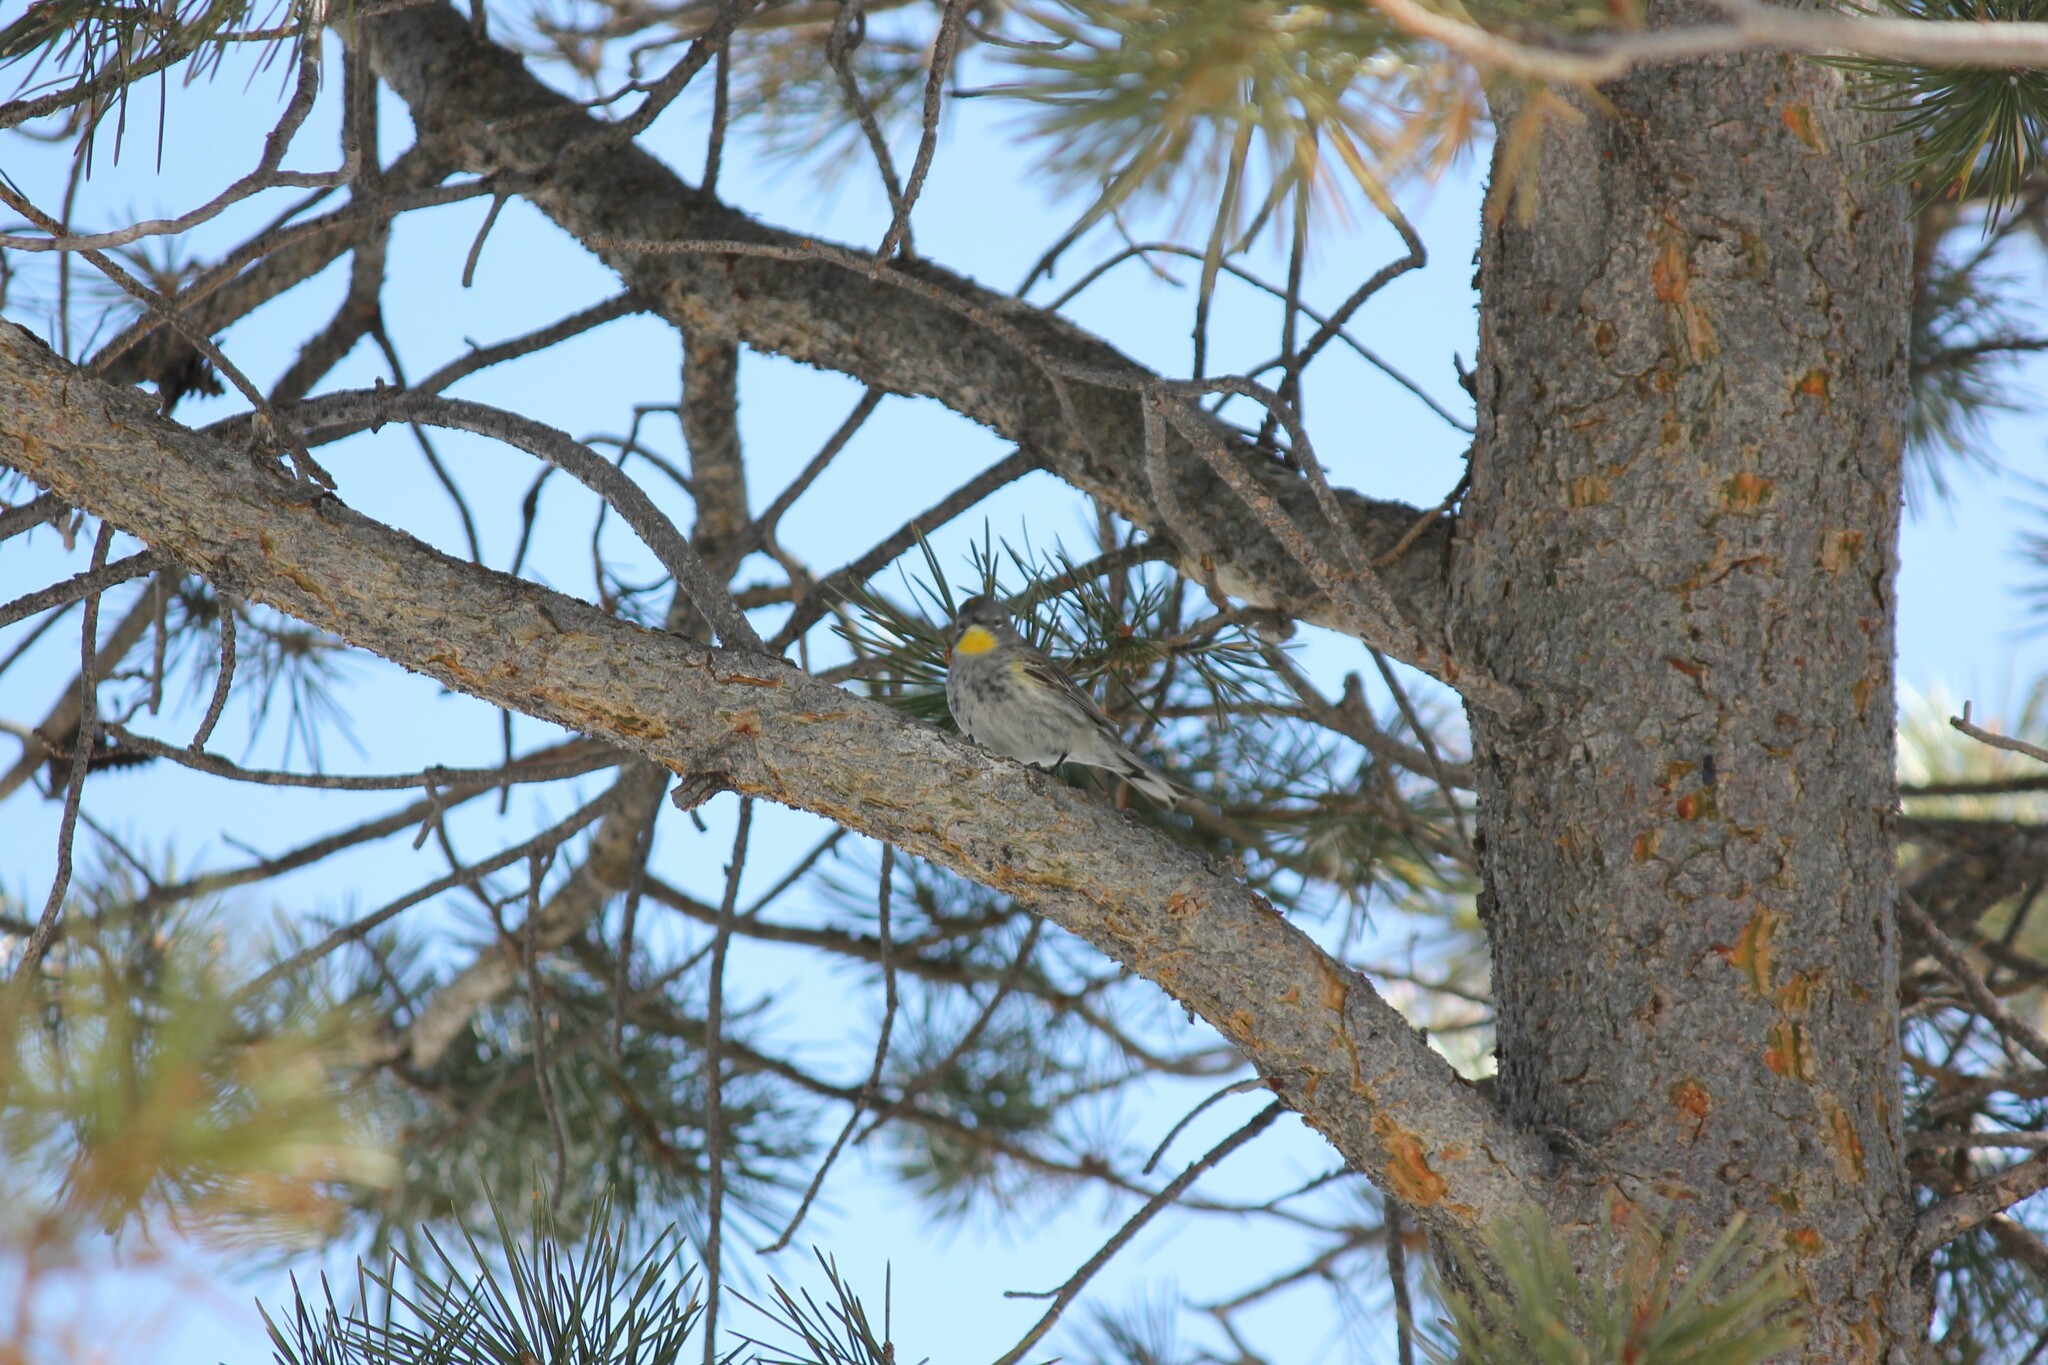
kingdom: Animalia
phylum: Chordata
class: Aves
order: Passeriformes
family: Parulidae
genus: Setophaga
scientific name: Setophaga coronata
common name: Myrtle warbler
